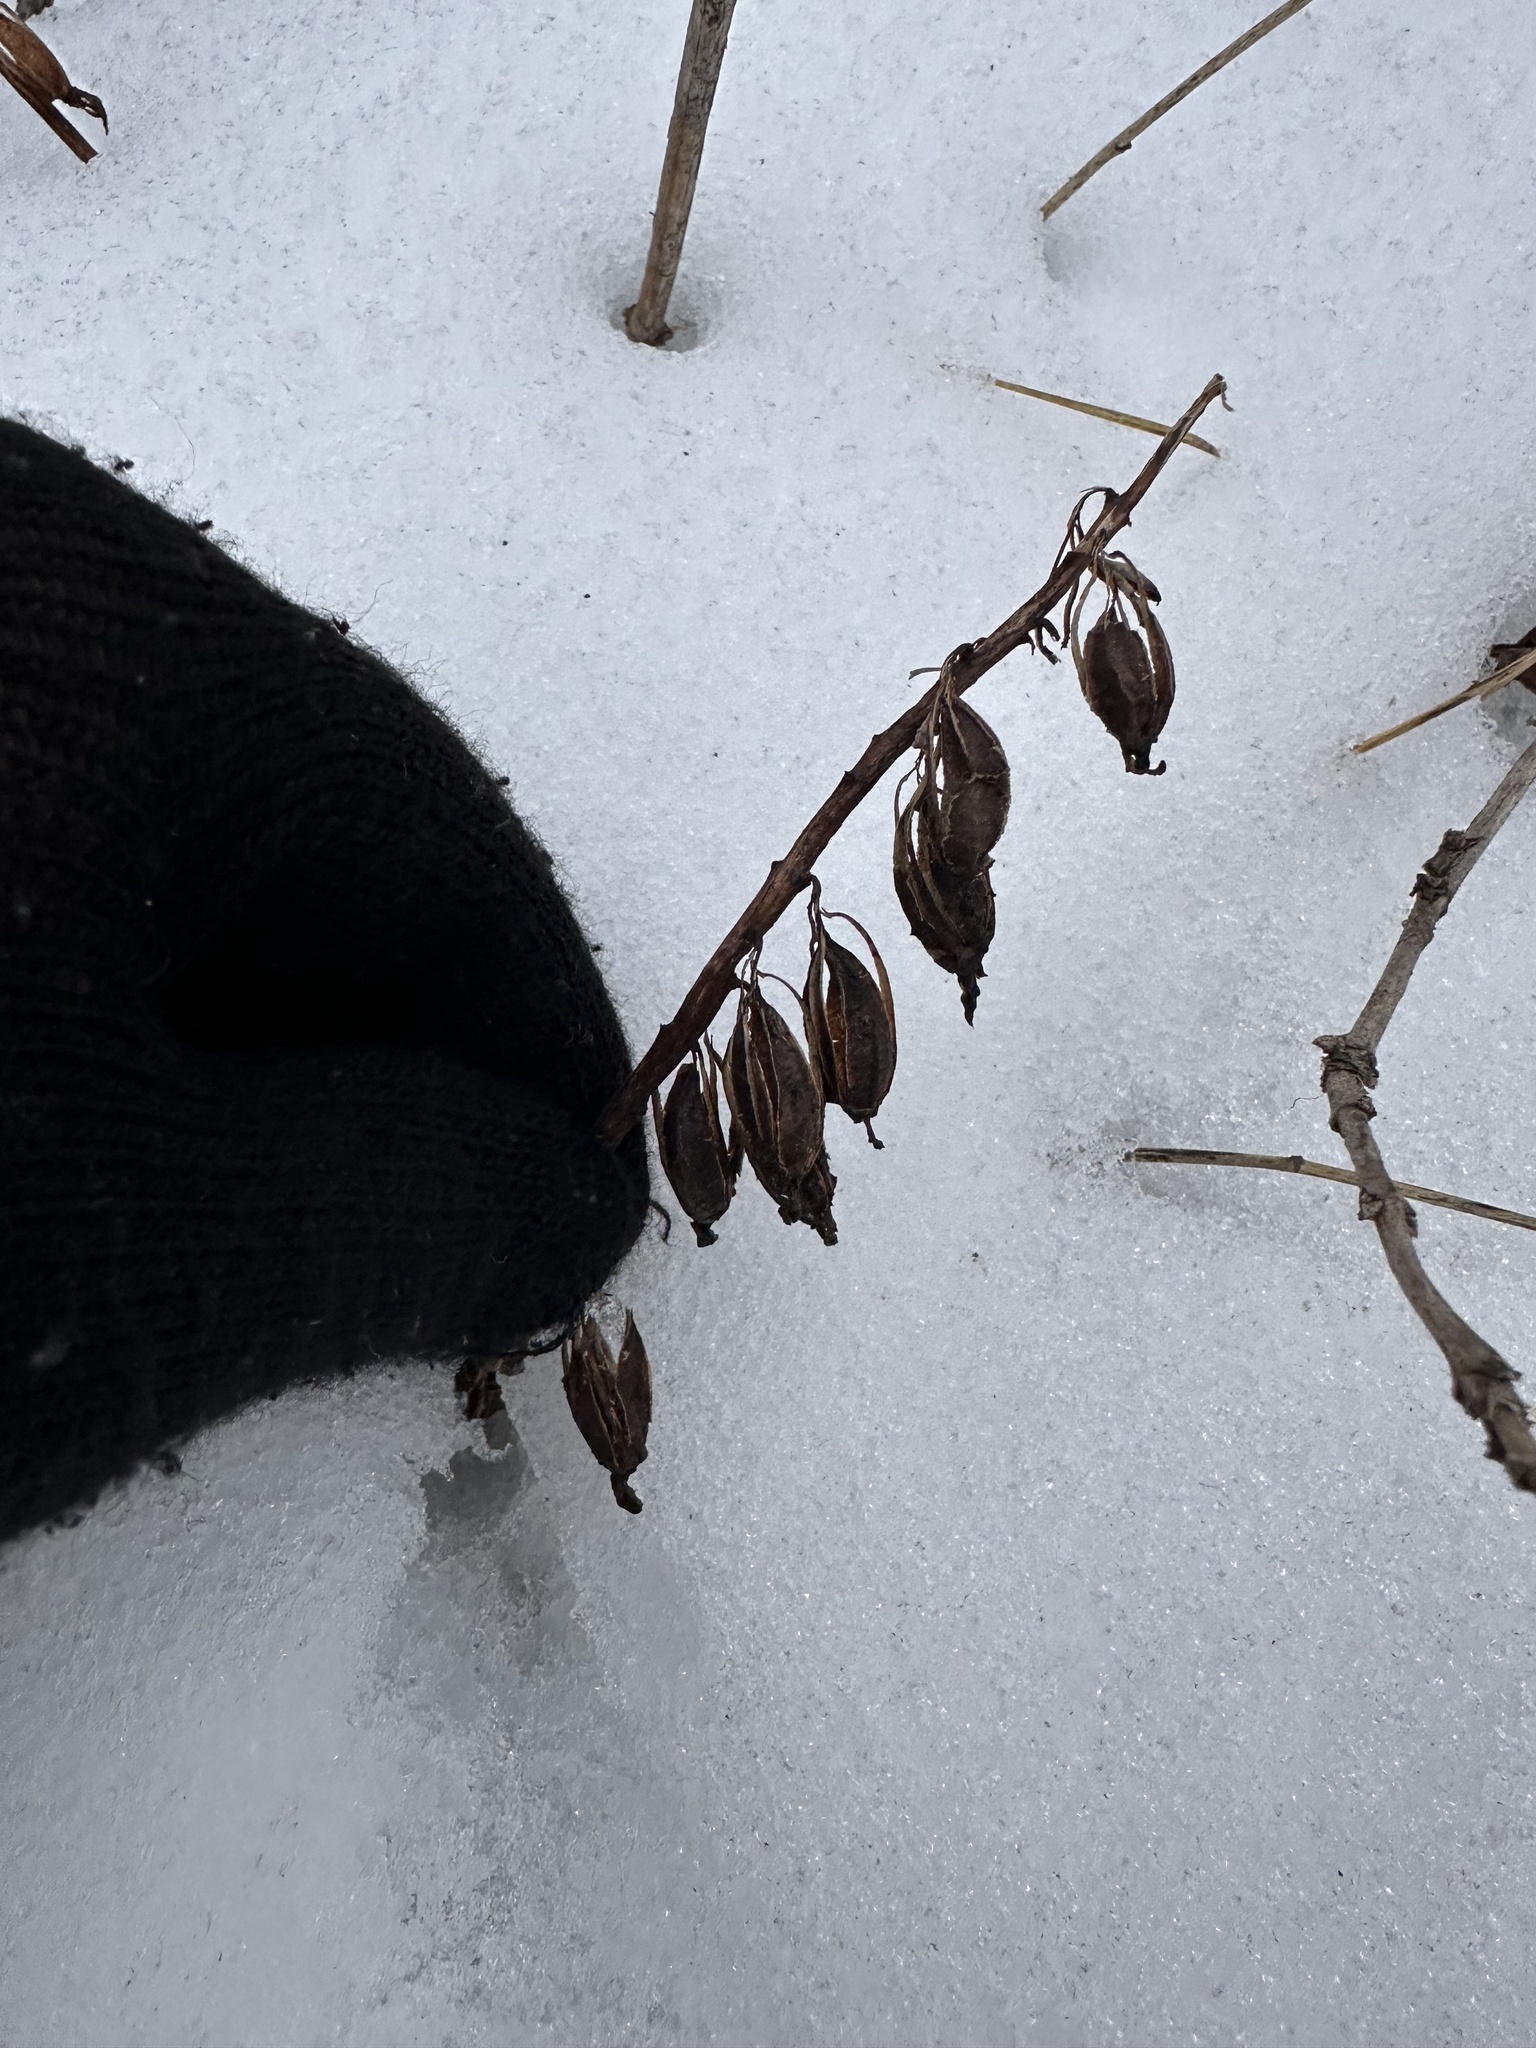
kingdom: Plantae
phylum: Tracheophyta
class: Liliopsida
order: Asparagales
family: Orchidaceae
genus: Corallorhiza
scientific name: Corallorhiza maculata
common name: Spotted coralroot
